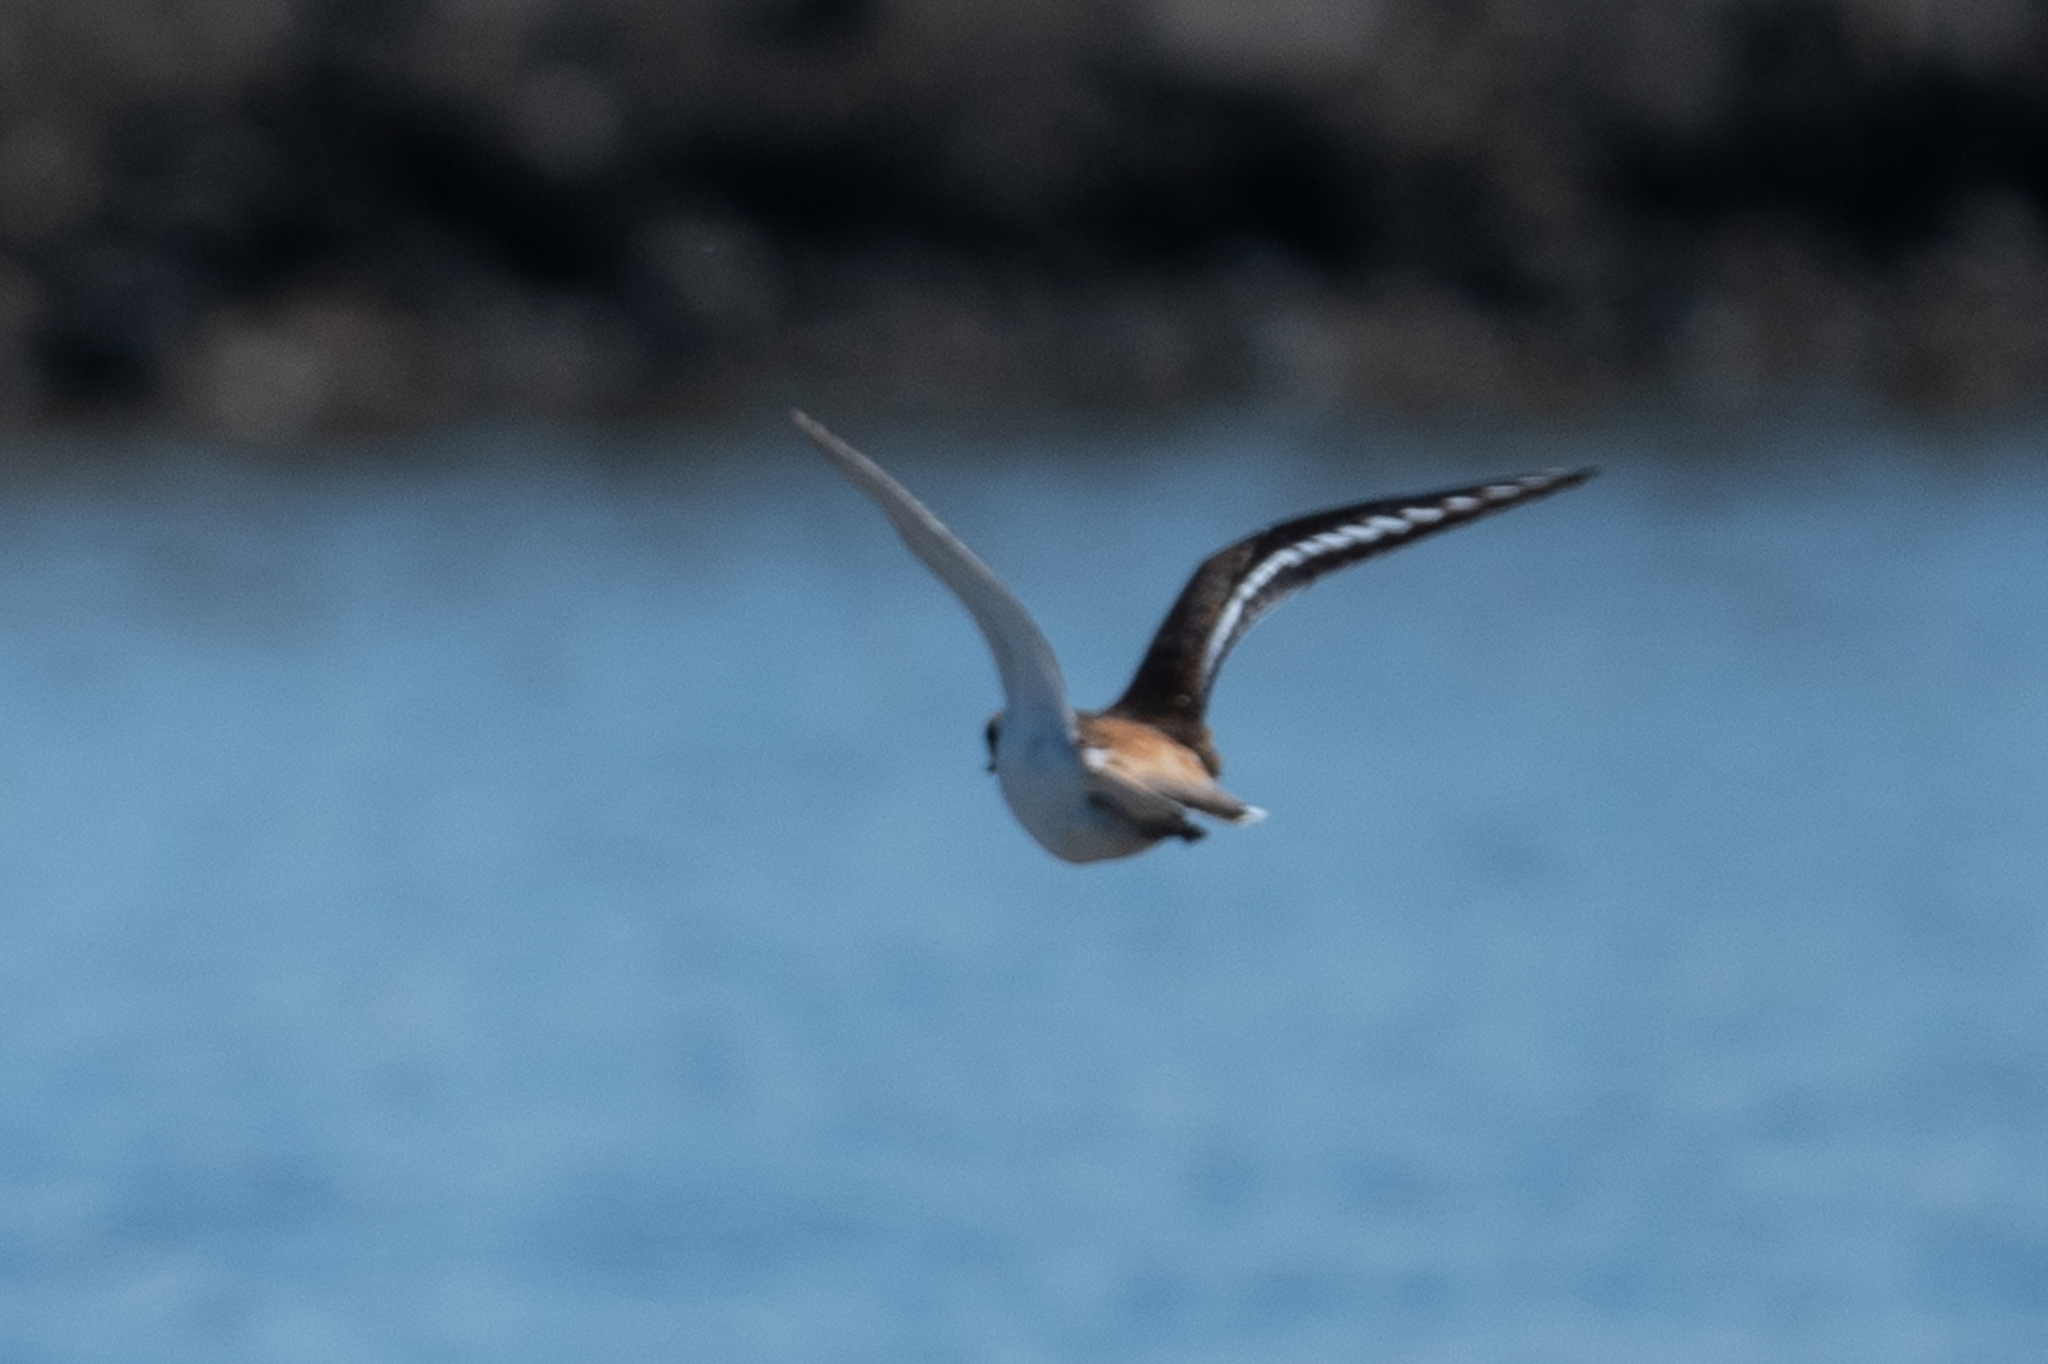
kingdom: Animalia
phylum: Chordata
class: Aves
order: Charadriiformes
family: Charadriidae
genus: Charadrius
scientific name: Charadrius vociferus
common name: Killdeer
